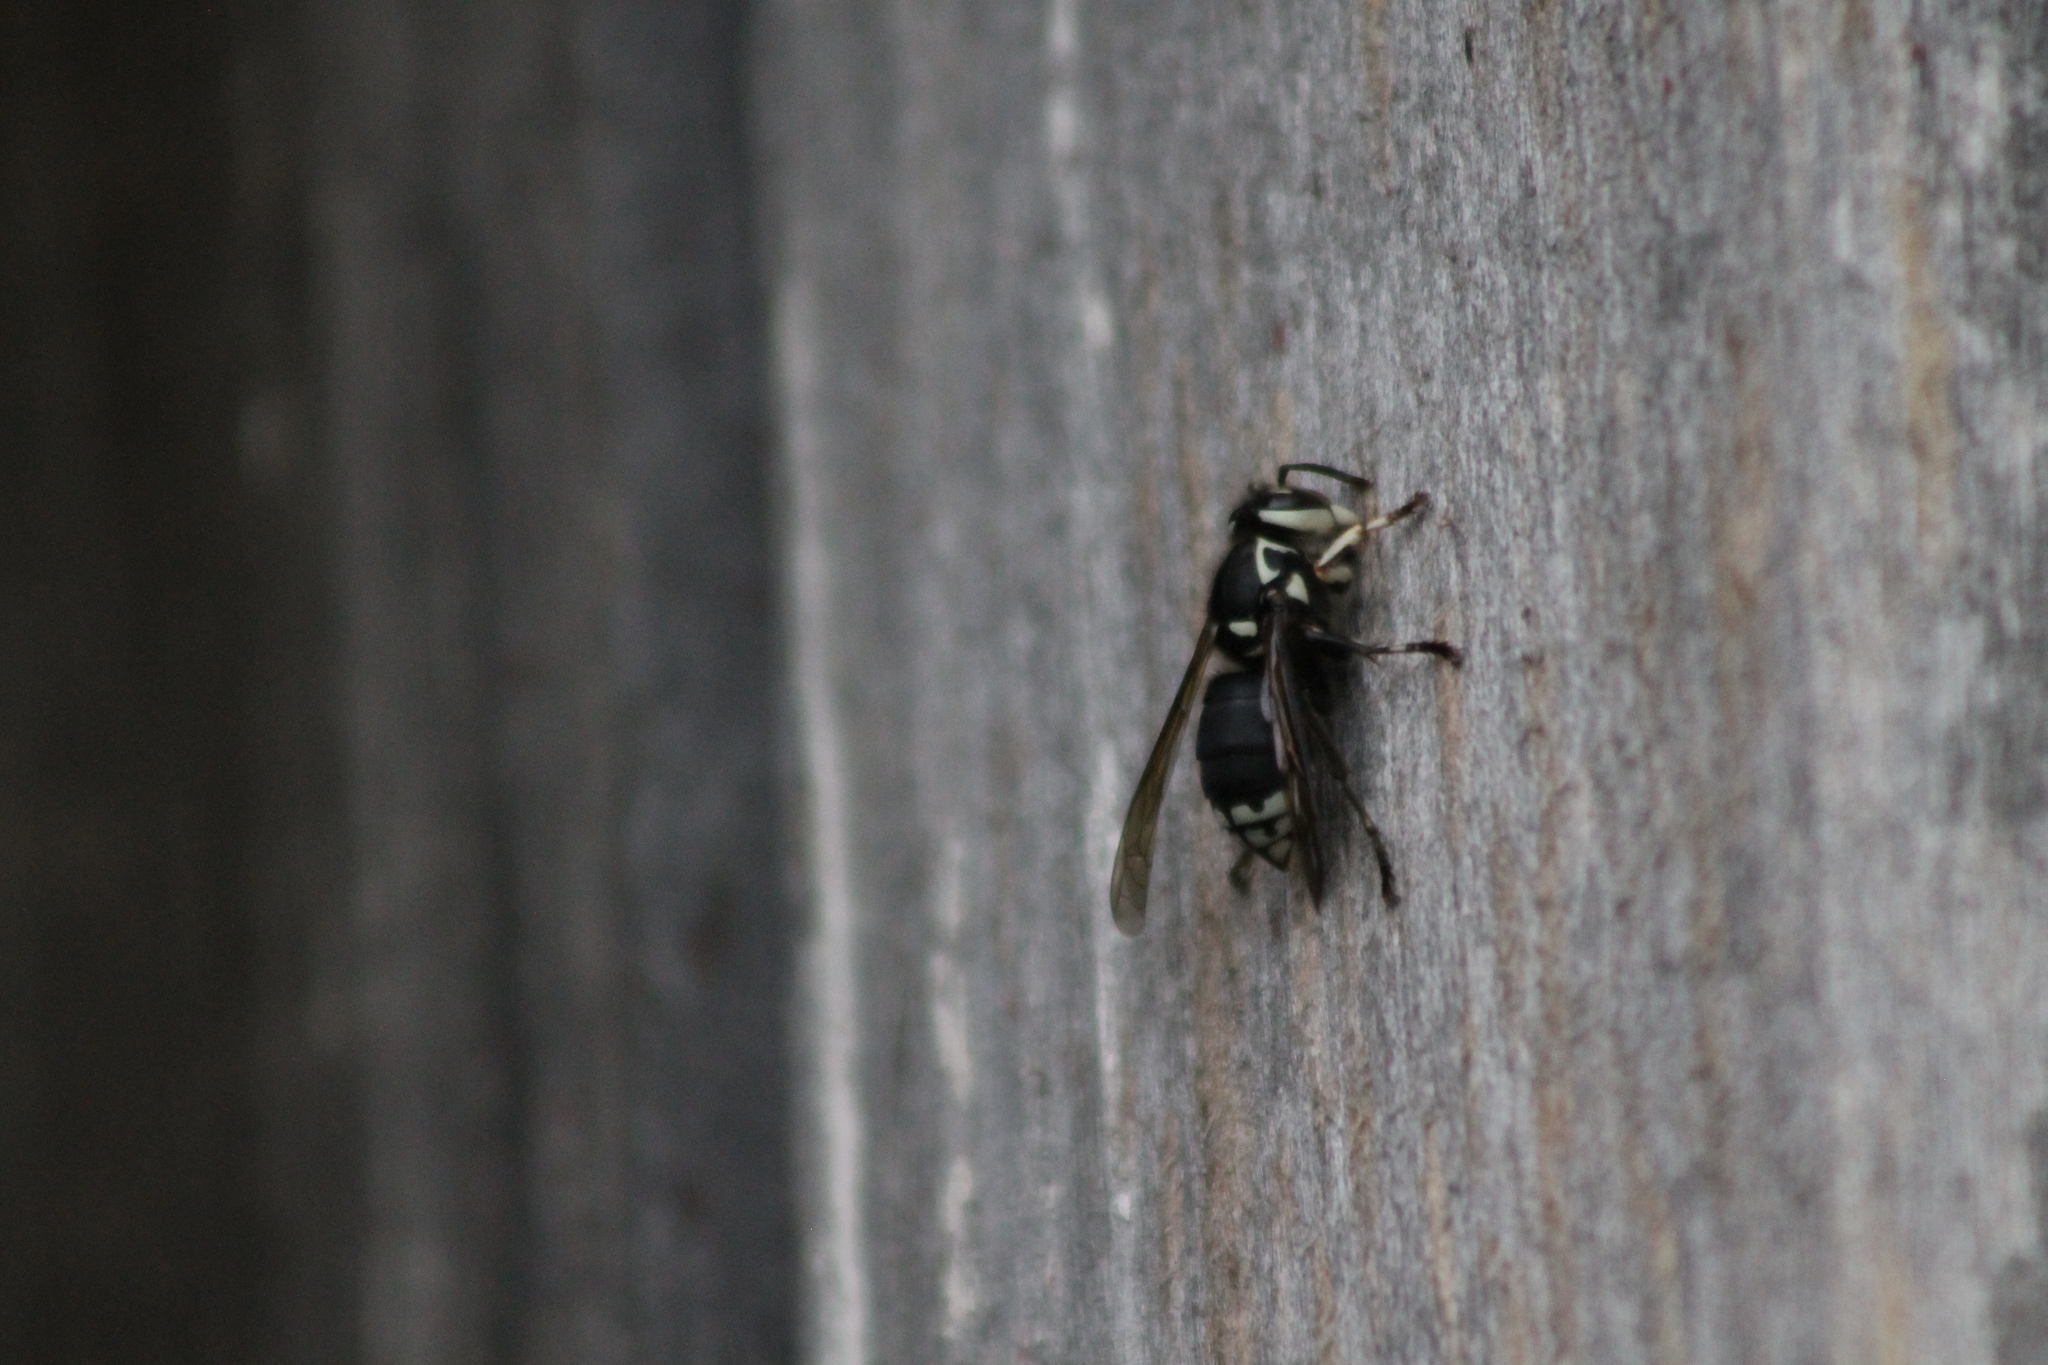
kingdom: Animalia
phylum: Arthropoda
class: Insecta
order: Hymenoptera
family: Vespidae
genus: Dolichovespula
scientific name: Dolichovespula maculata
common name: Bald-faced hornet
